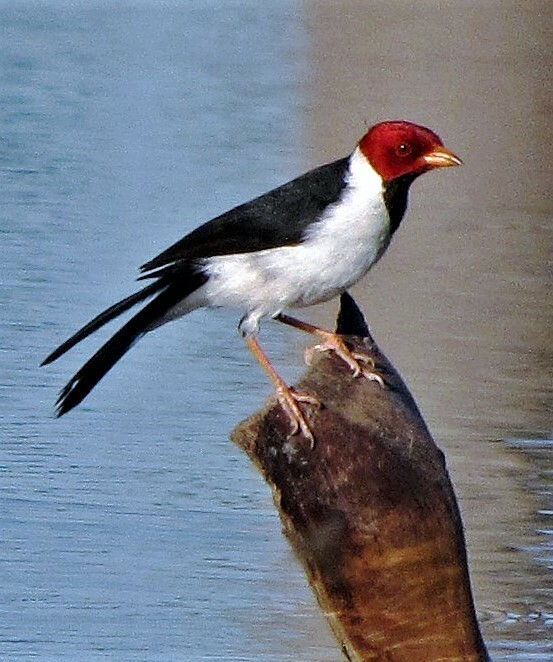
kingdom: Animalia
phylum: Chordata
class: Aves
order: Passeriformes
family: Thraupidae
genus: Paroaria
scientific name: Paroaria capitata
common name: Yellow-billed cardinal
